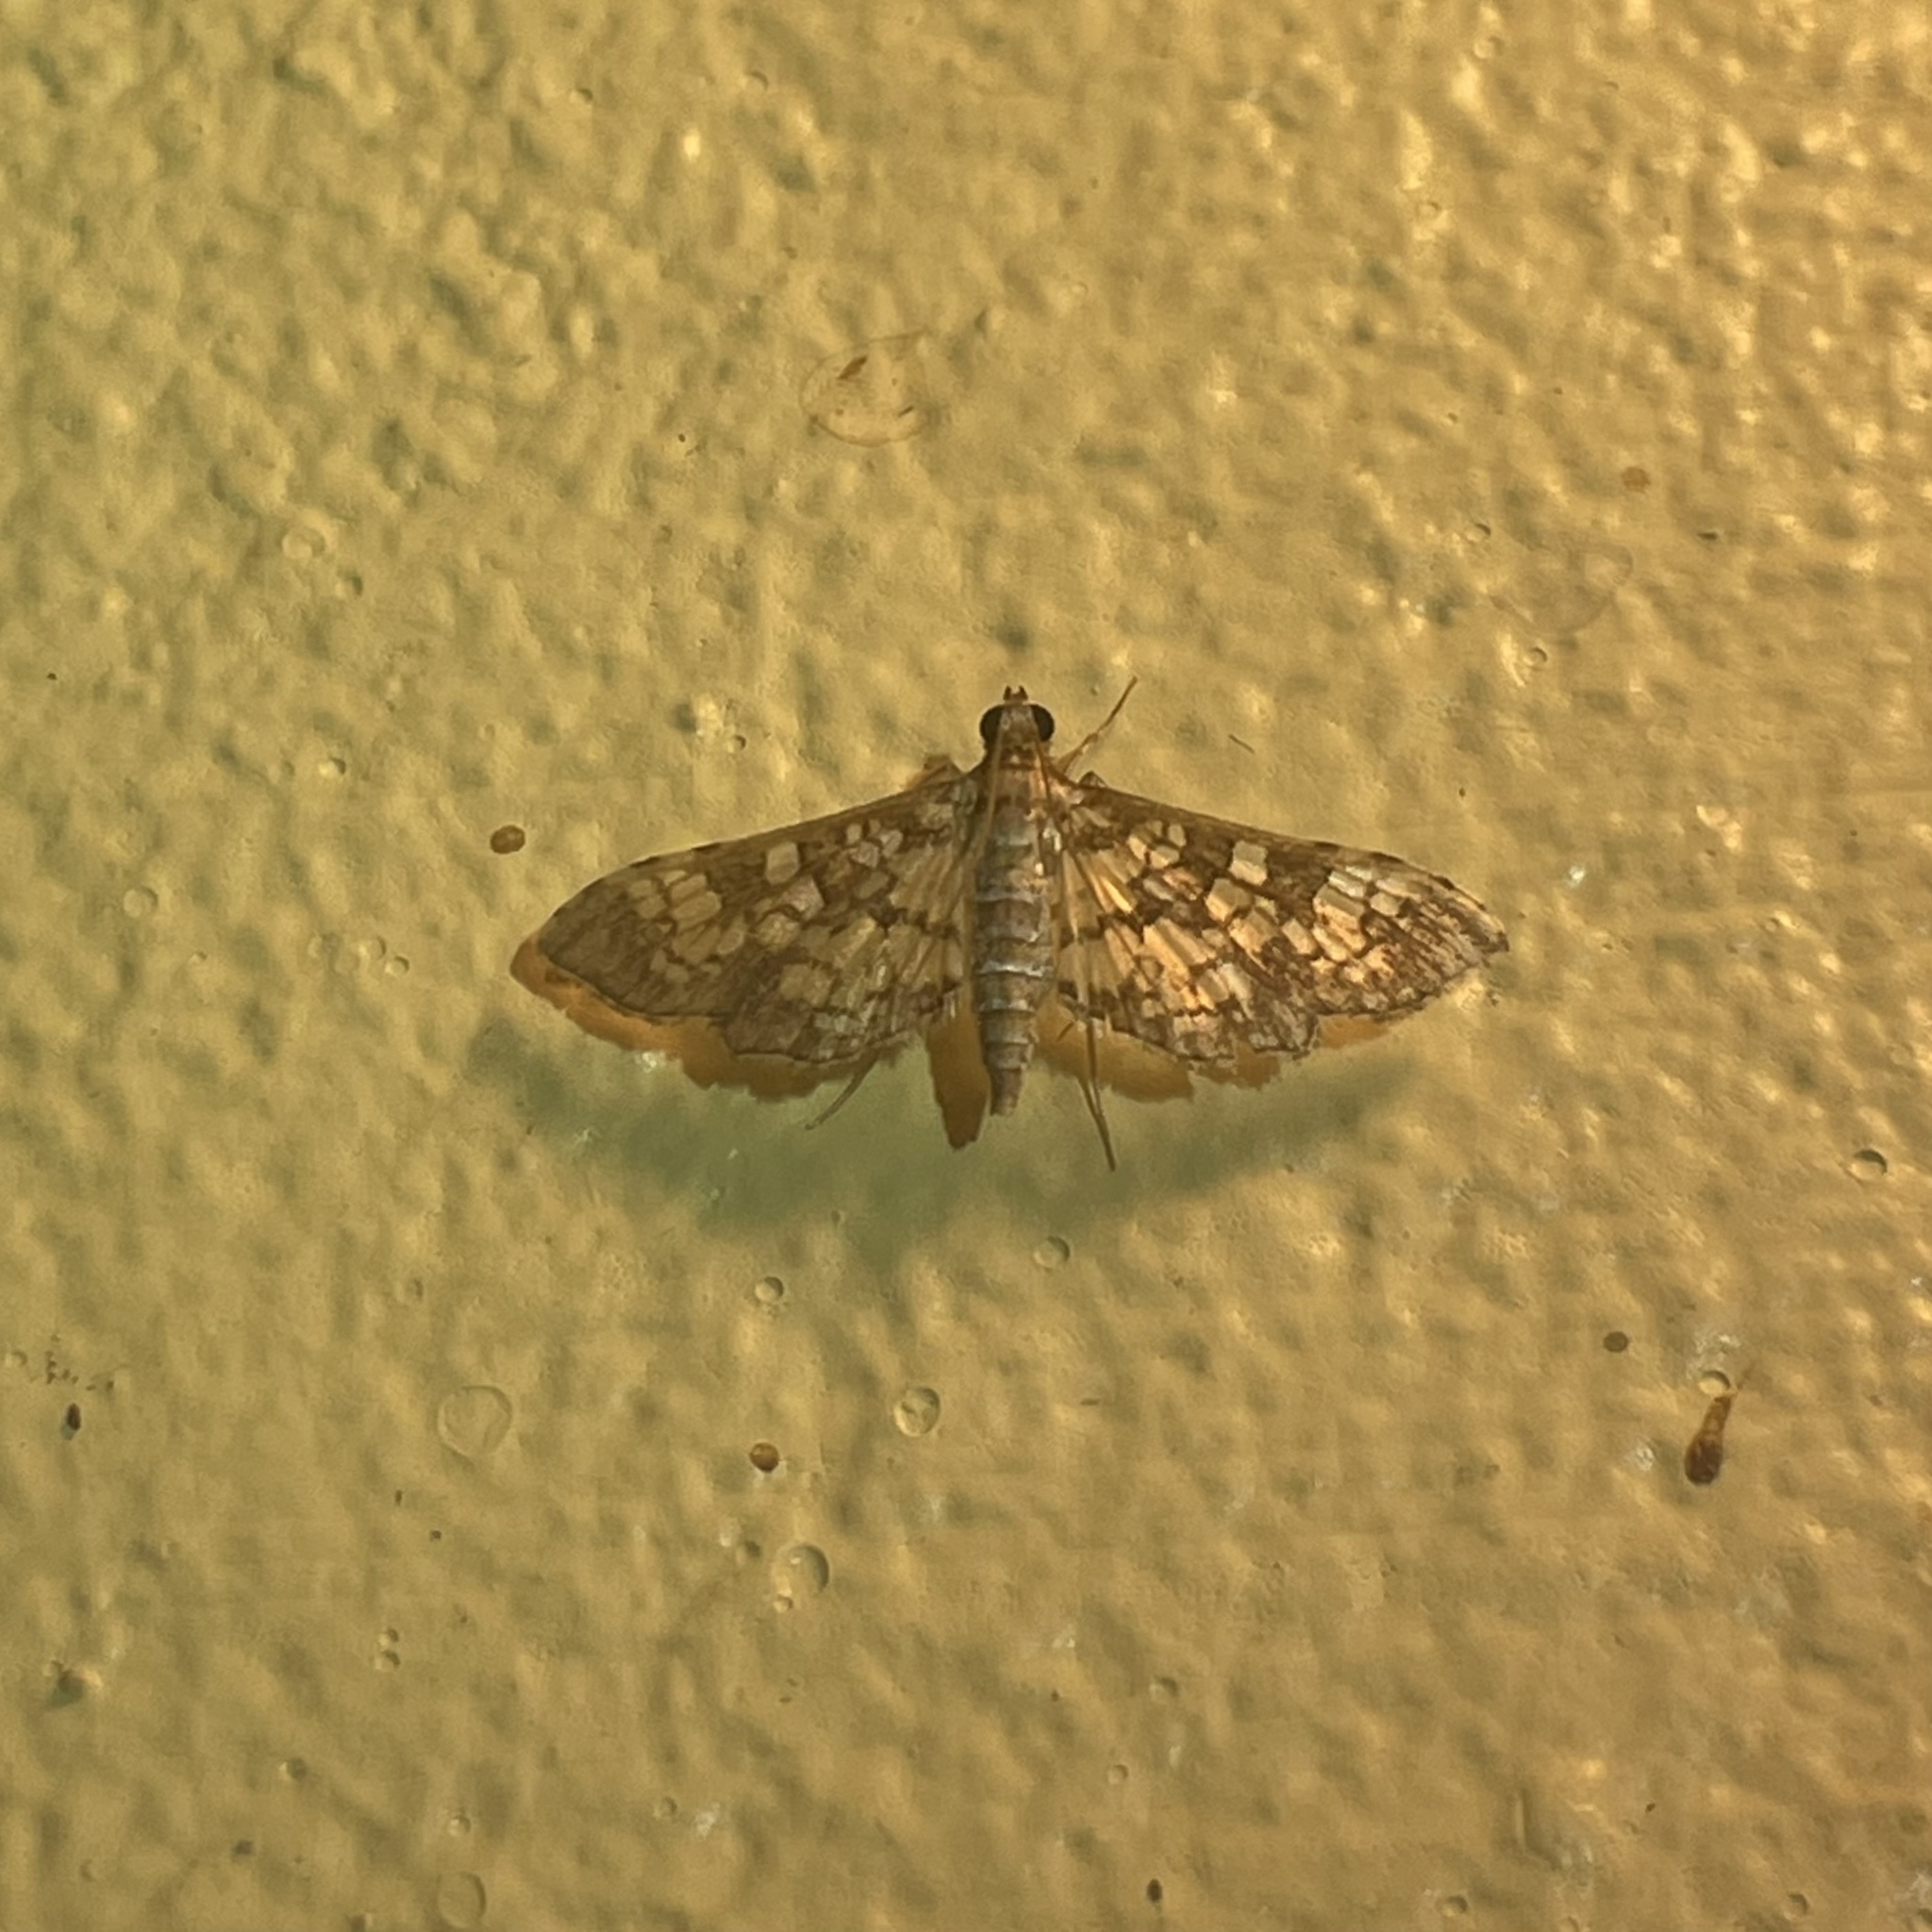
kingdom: Animalia
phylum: Arthropoda
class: Insecta
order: Lepidoptera
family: Crambidae
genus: Samea
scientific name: Samea ecclesialis
